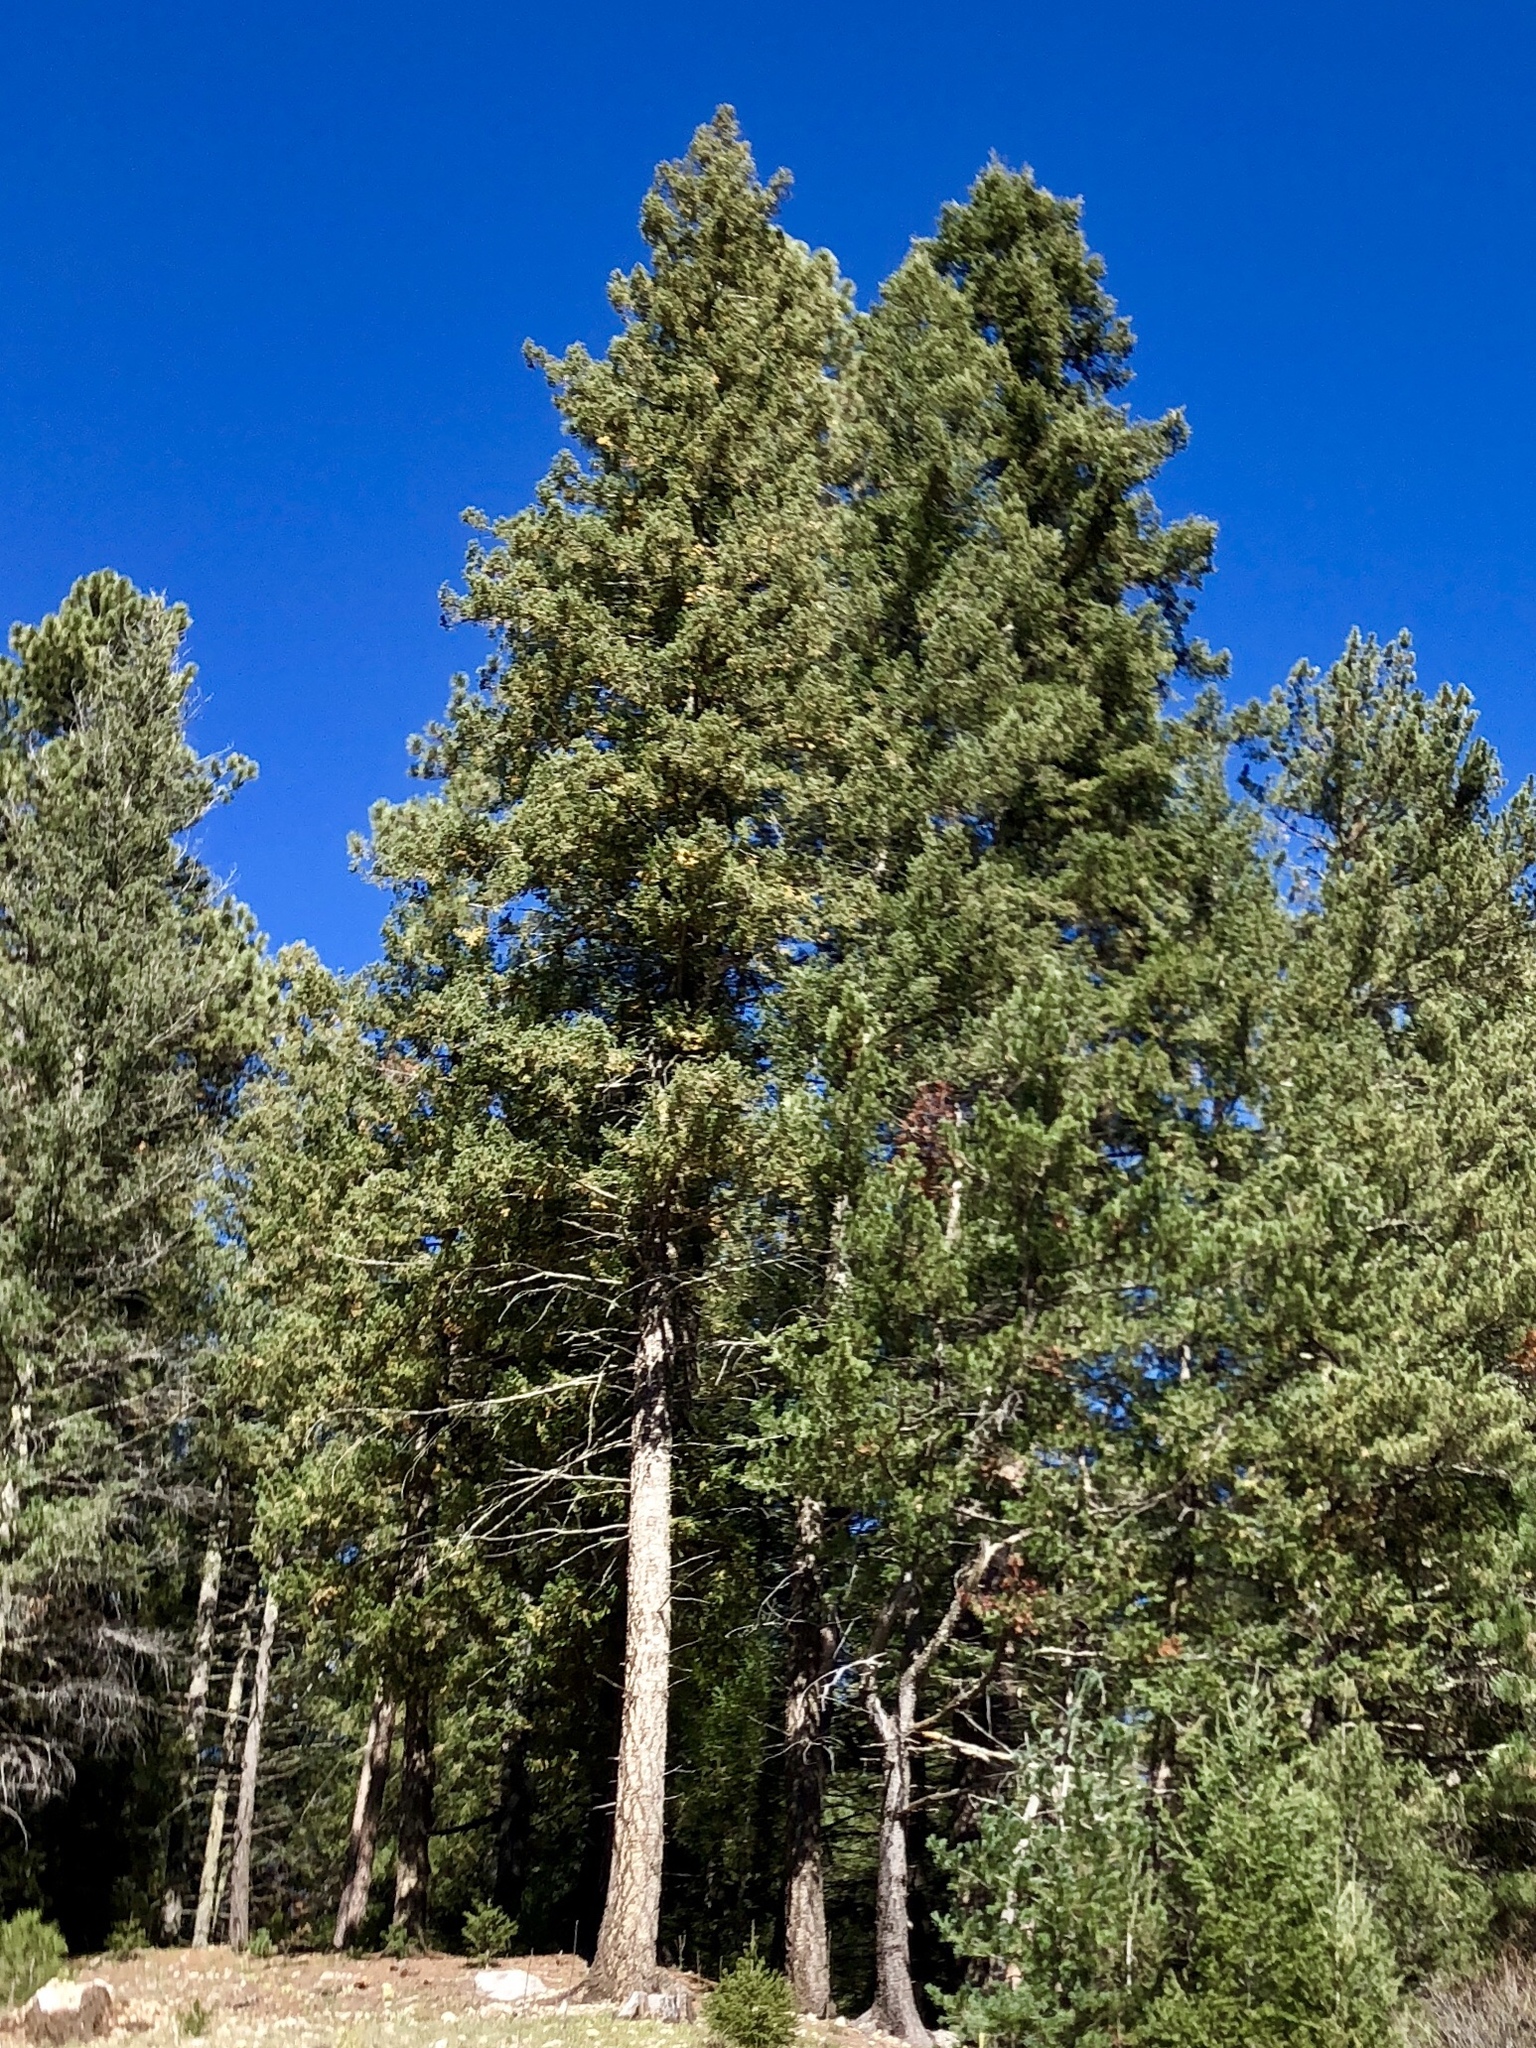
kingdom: Plantae
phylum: Tracheophyta
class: Pinopsida
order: Pinales
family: Pinaceae
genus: Pinus
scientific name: Pinus ponderosa
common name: Western yellow-pine
